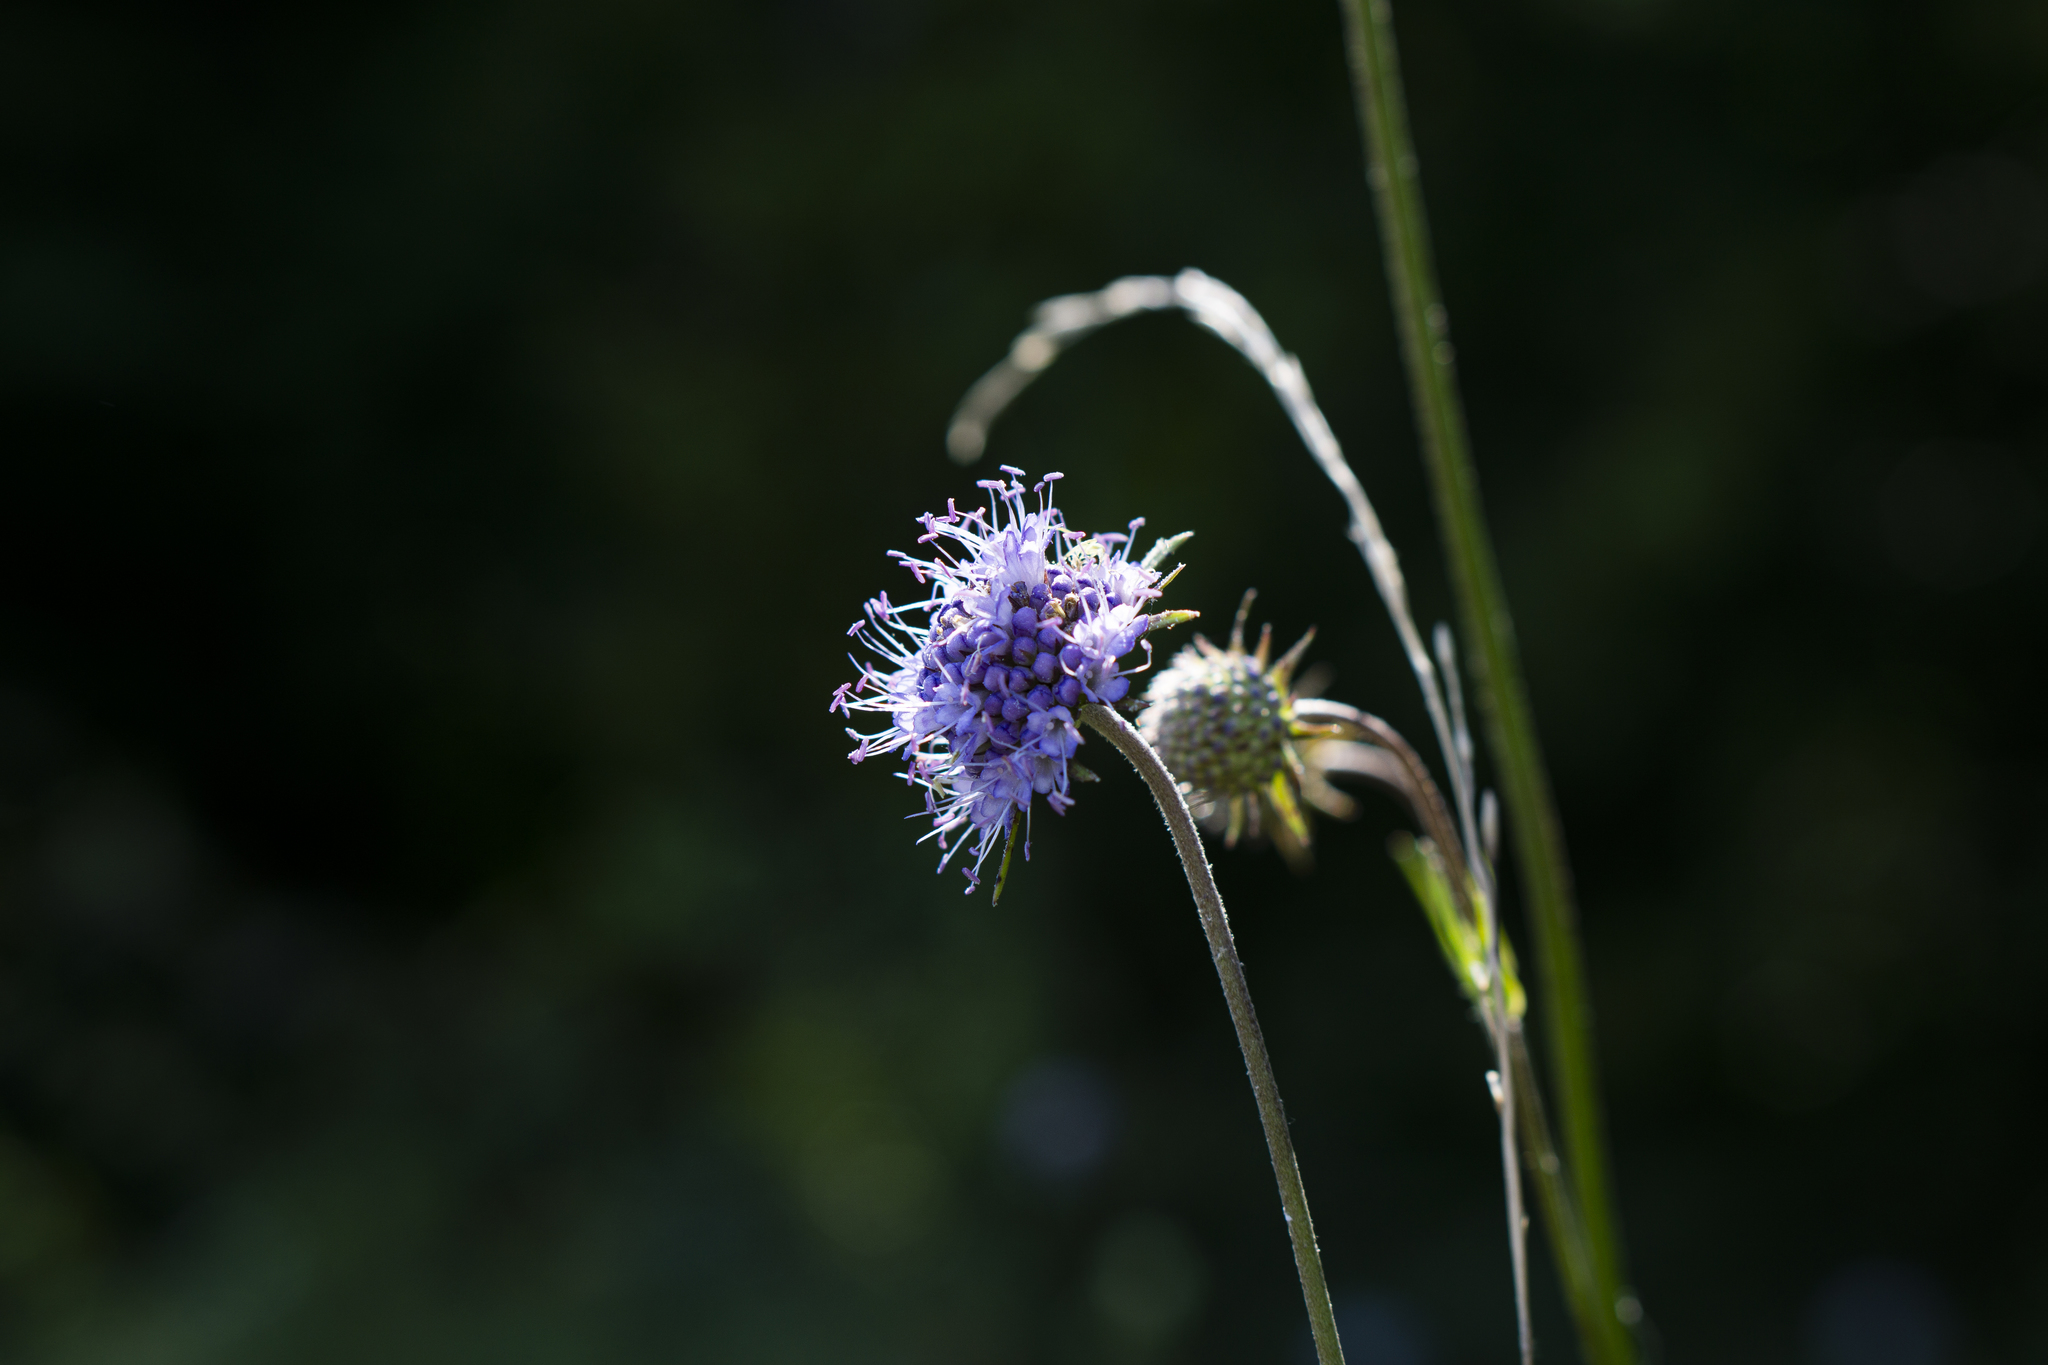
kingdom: Plantae
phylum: Tracheophyta
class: Magnoliopsida
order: Dipsacales
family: Caprifoliaceae
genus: Succisa
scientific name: Succisa pratensis
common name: Devil's-bit
